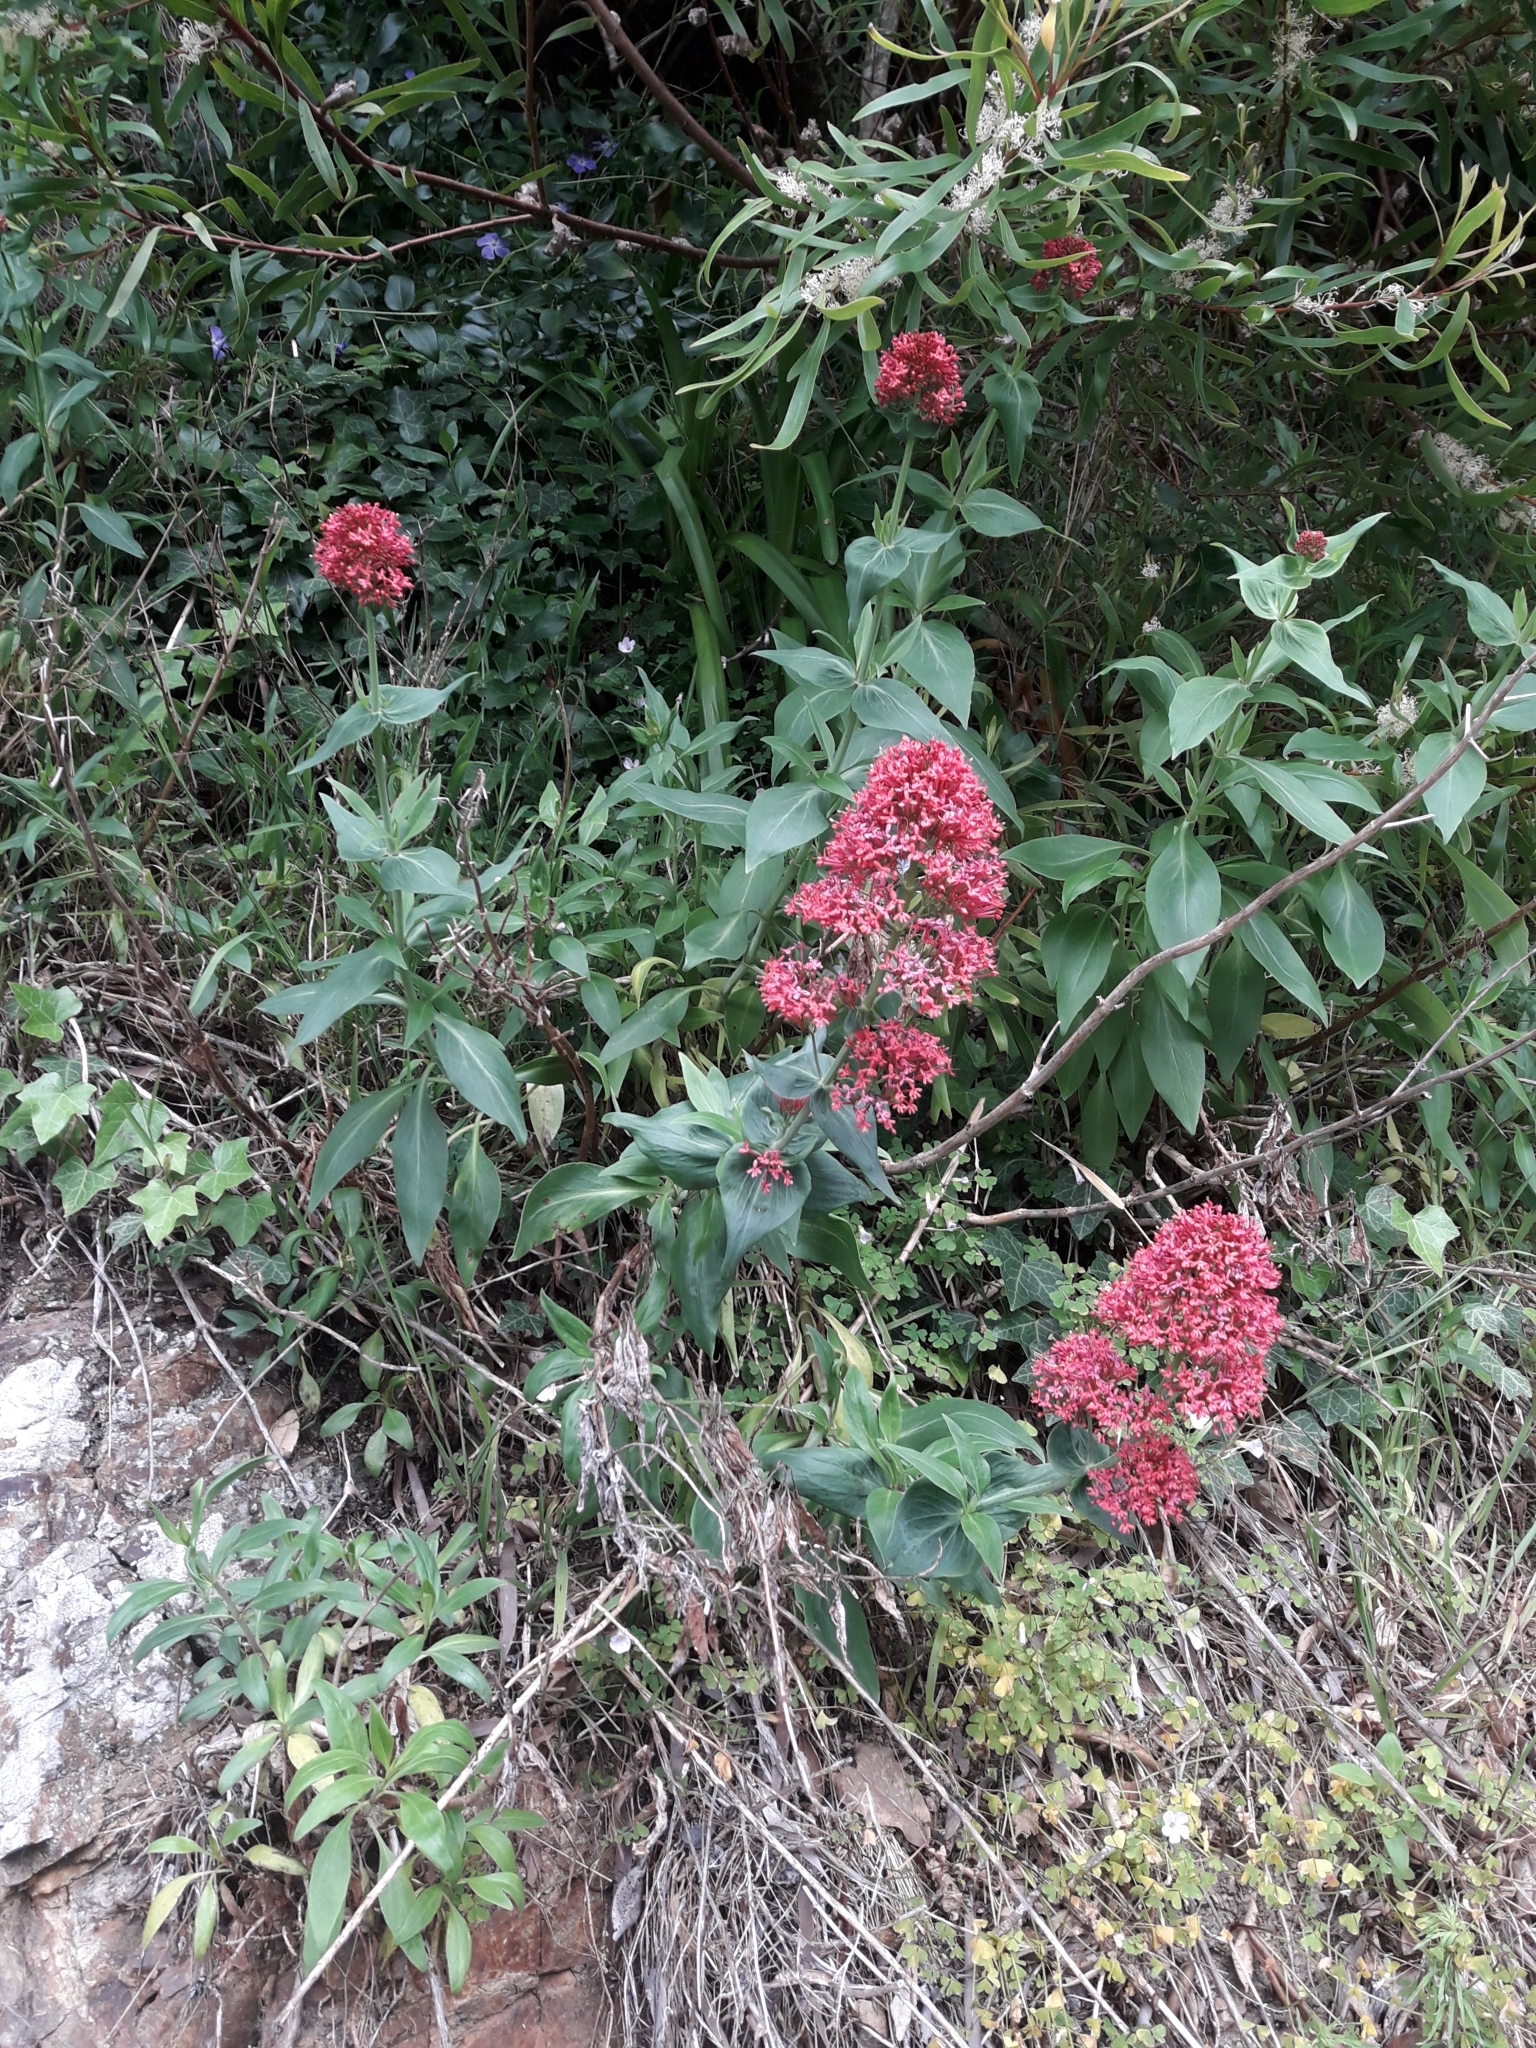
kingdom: Plantae
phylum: Tracheophyta
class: Magnoliopsida
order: Dipsacales
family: Caprifoliaceae
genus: Centranthus
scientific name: Centranthus ruber
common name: Red valerian
